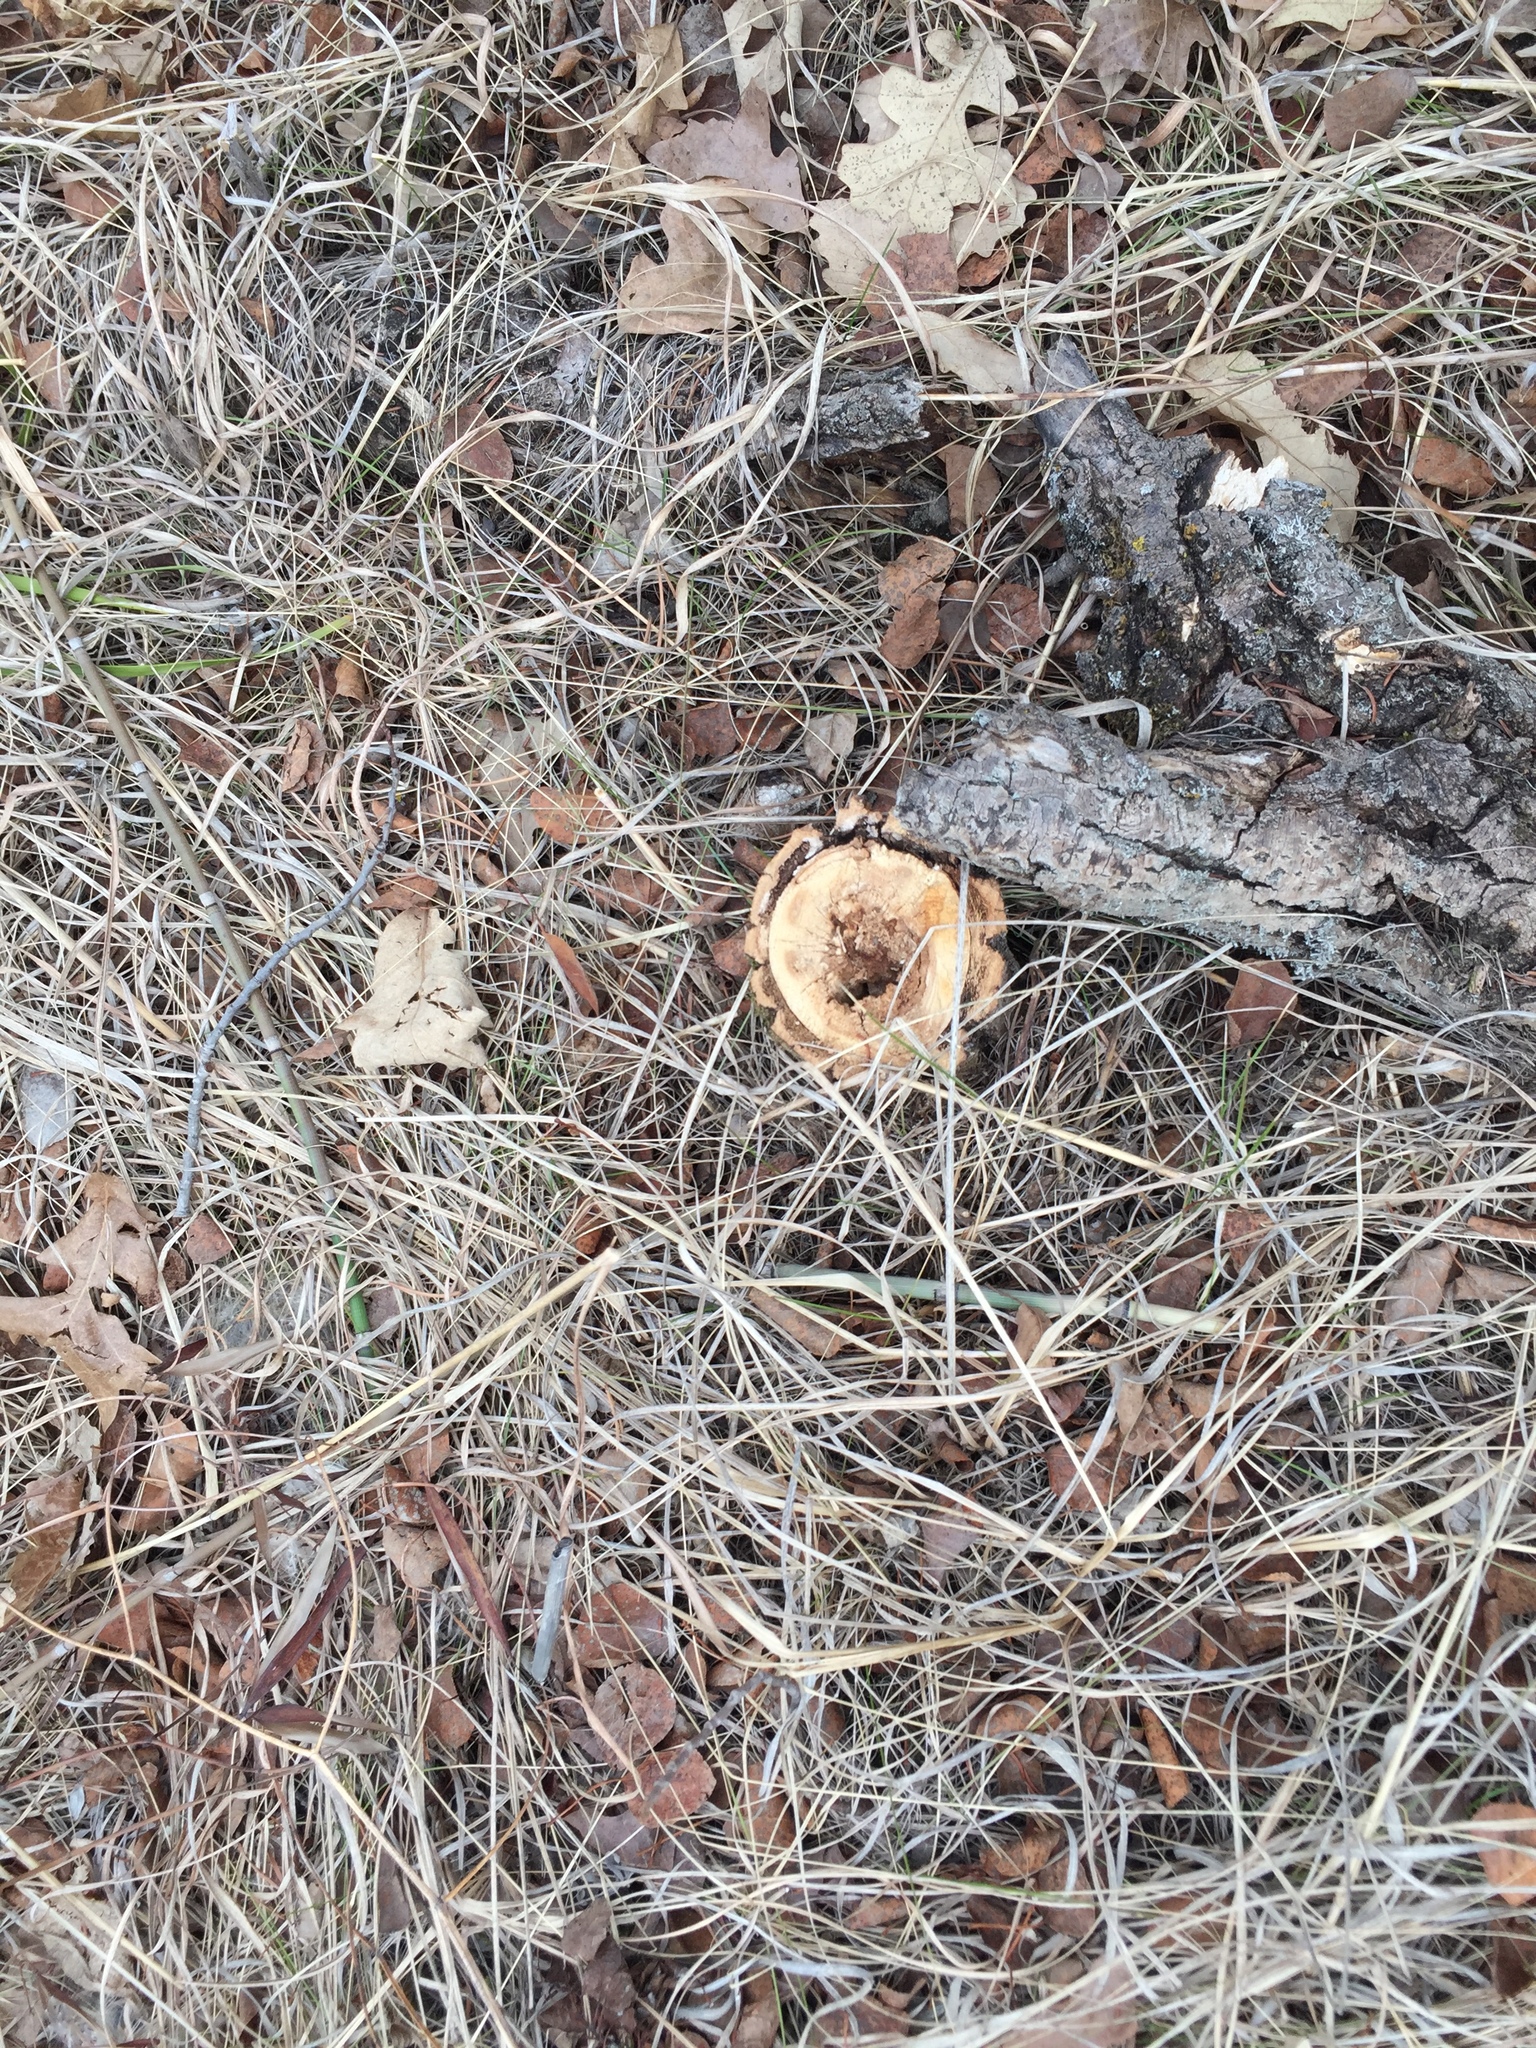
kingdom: Plantae
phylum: Tracheophyta
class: Magnoliopsida
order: Fagales
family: Fagaceae
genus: Quercus
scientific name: Quercus macrocarpa
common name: Bur oak
